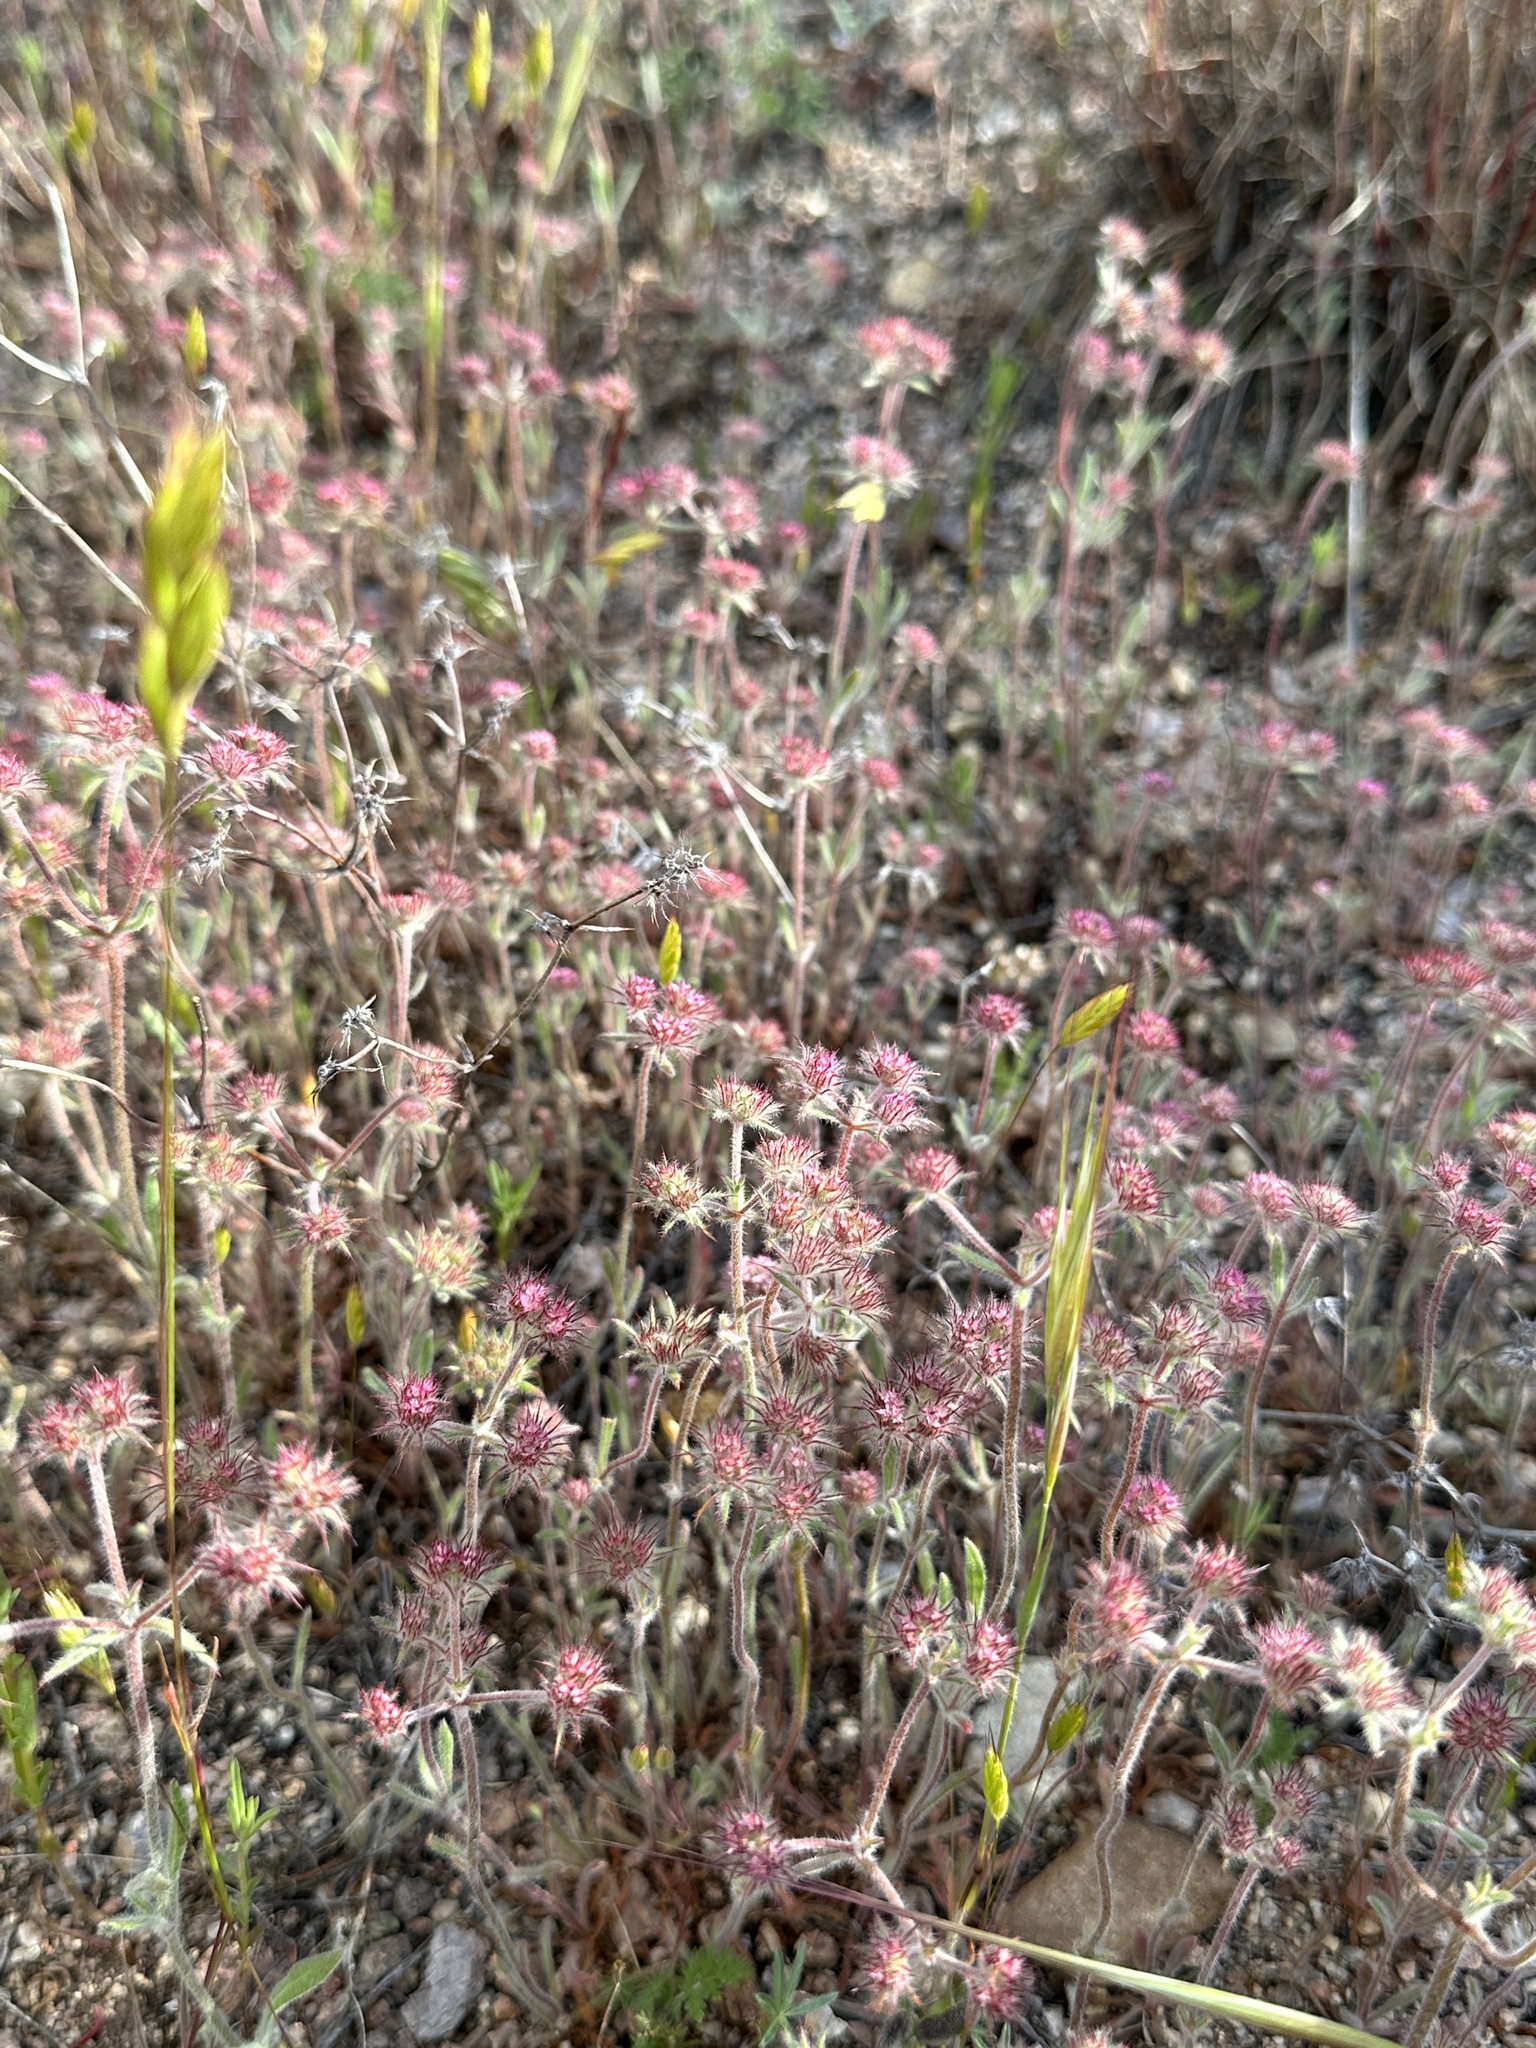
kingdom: Plantae
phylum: Tracheophyta
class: Magnoliopsida
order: Caryophyllales
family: Polygonaceae
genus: Chorizanthe
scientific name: Chorizanthe douglasii
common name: Douglas's spineflower
